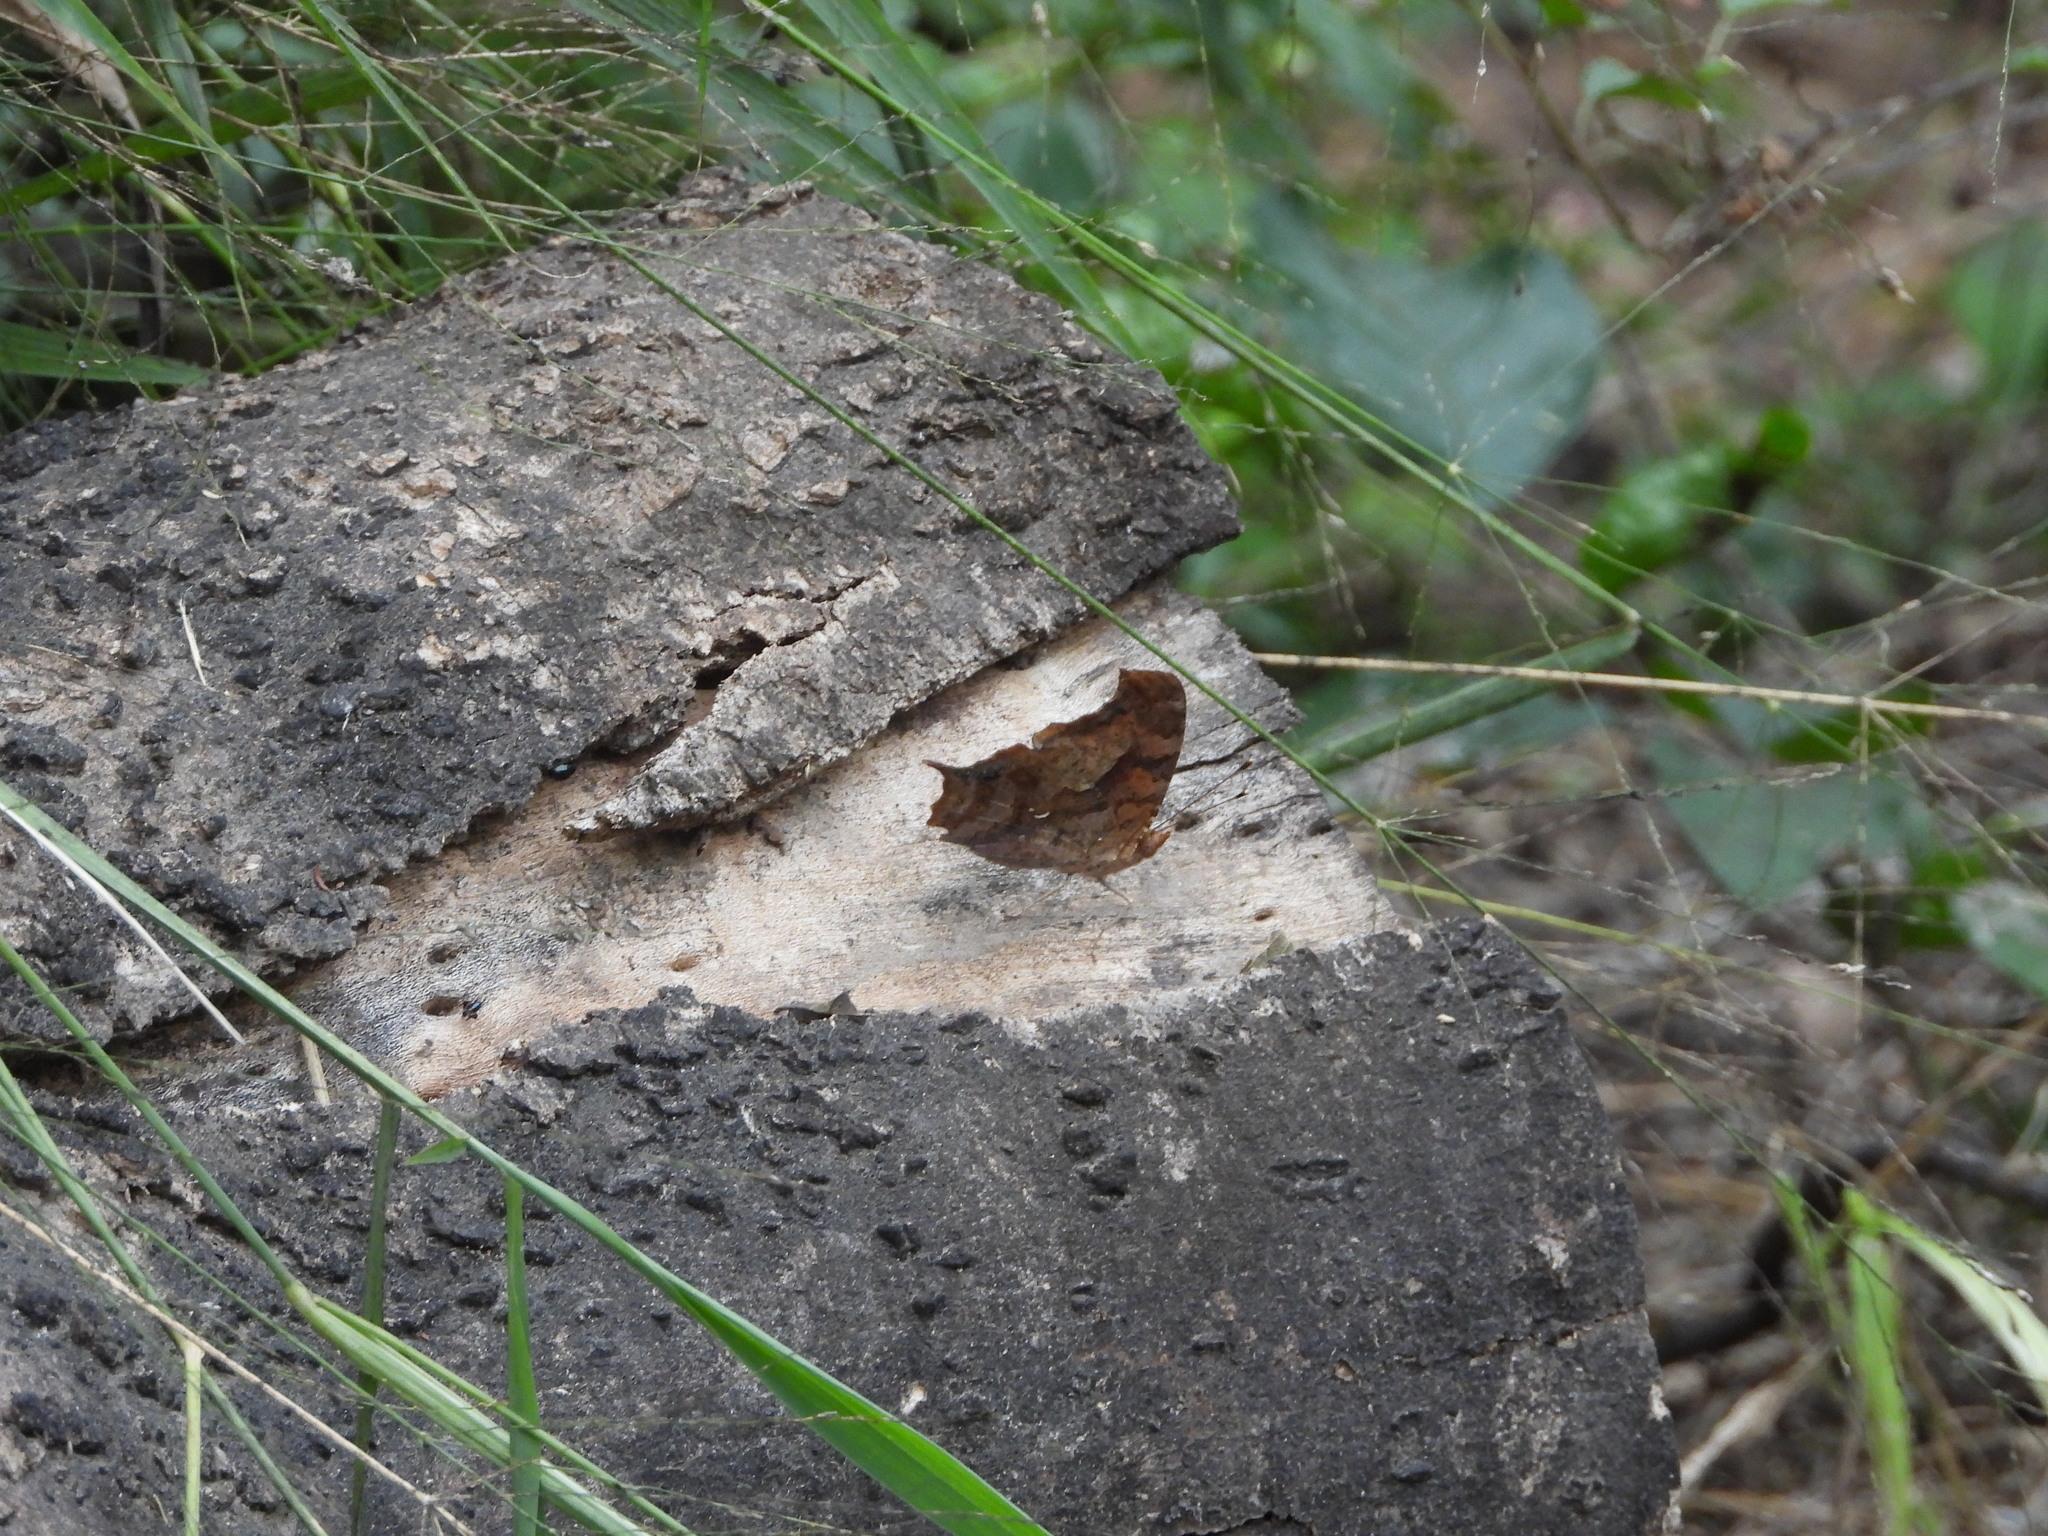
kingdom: Animalia
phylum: Arthropoda
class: Insecta
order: Lepidoptera
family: Nymphalidae
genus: Polygonia
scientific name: Polygonia interrogationis
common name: Question mark
